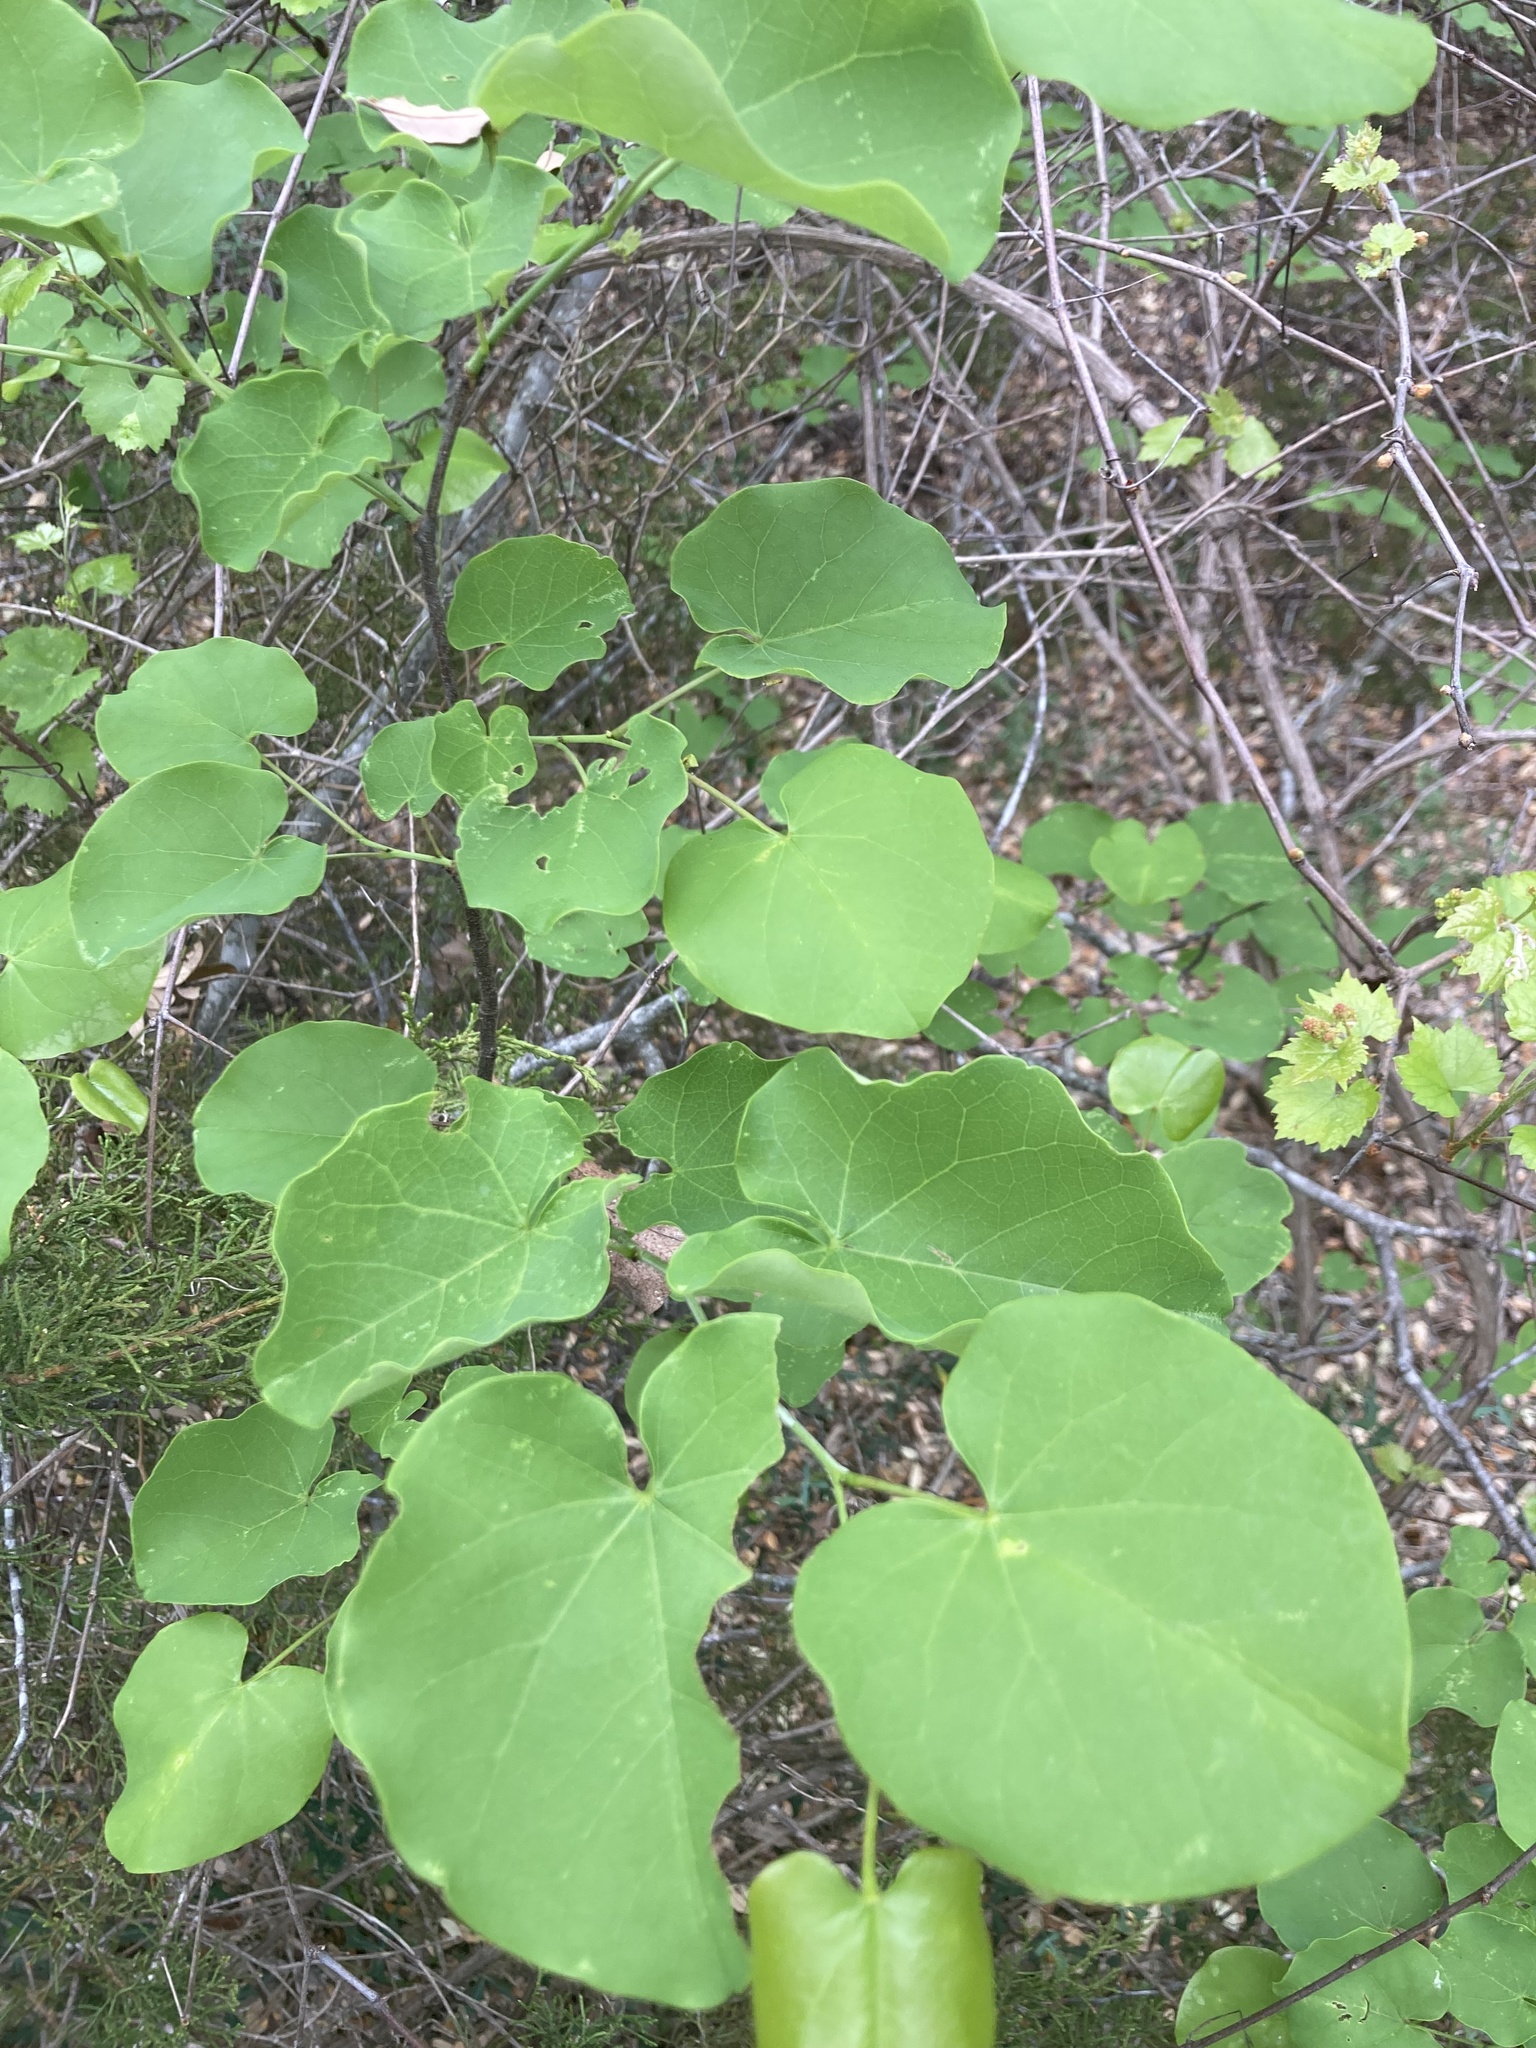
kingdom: Plantae
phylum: Tracheophyta
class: Magnoliopsida
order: Fabales
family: Fabaceae
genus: Cercis
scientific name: Cercis canadensis
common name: Eastern redbud
